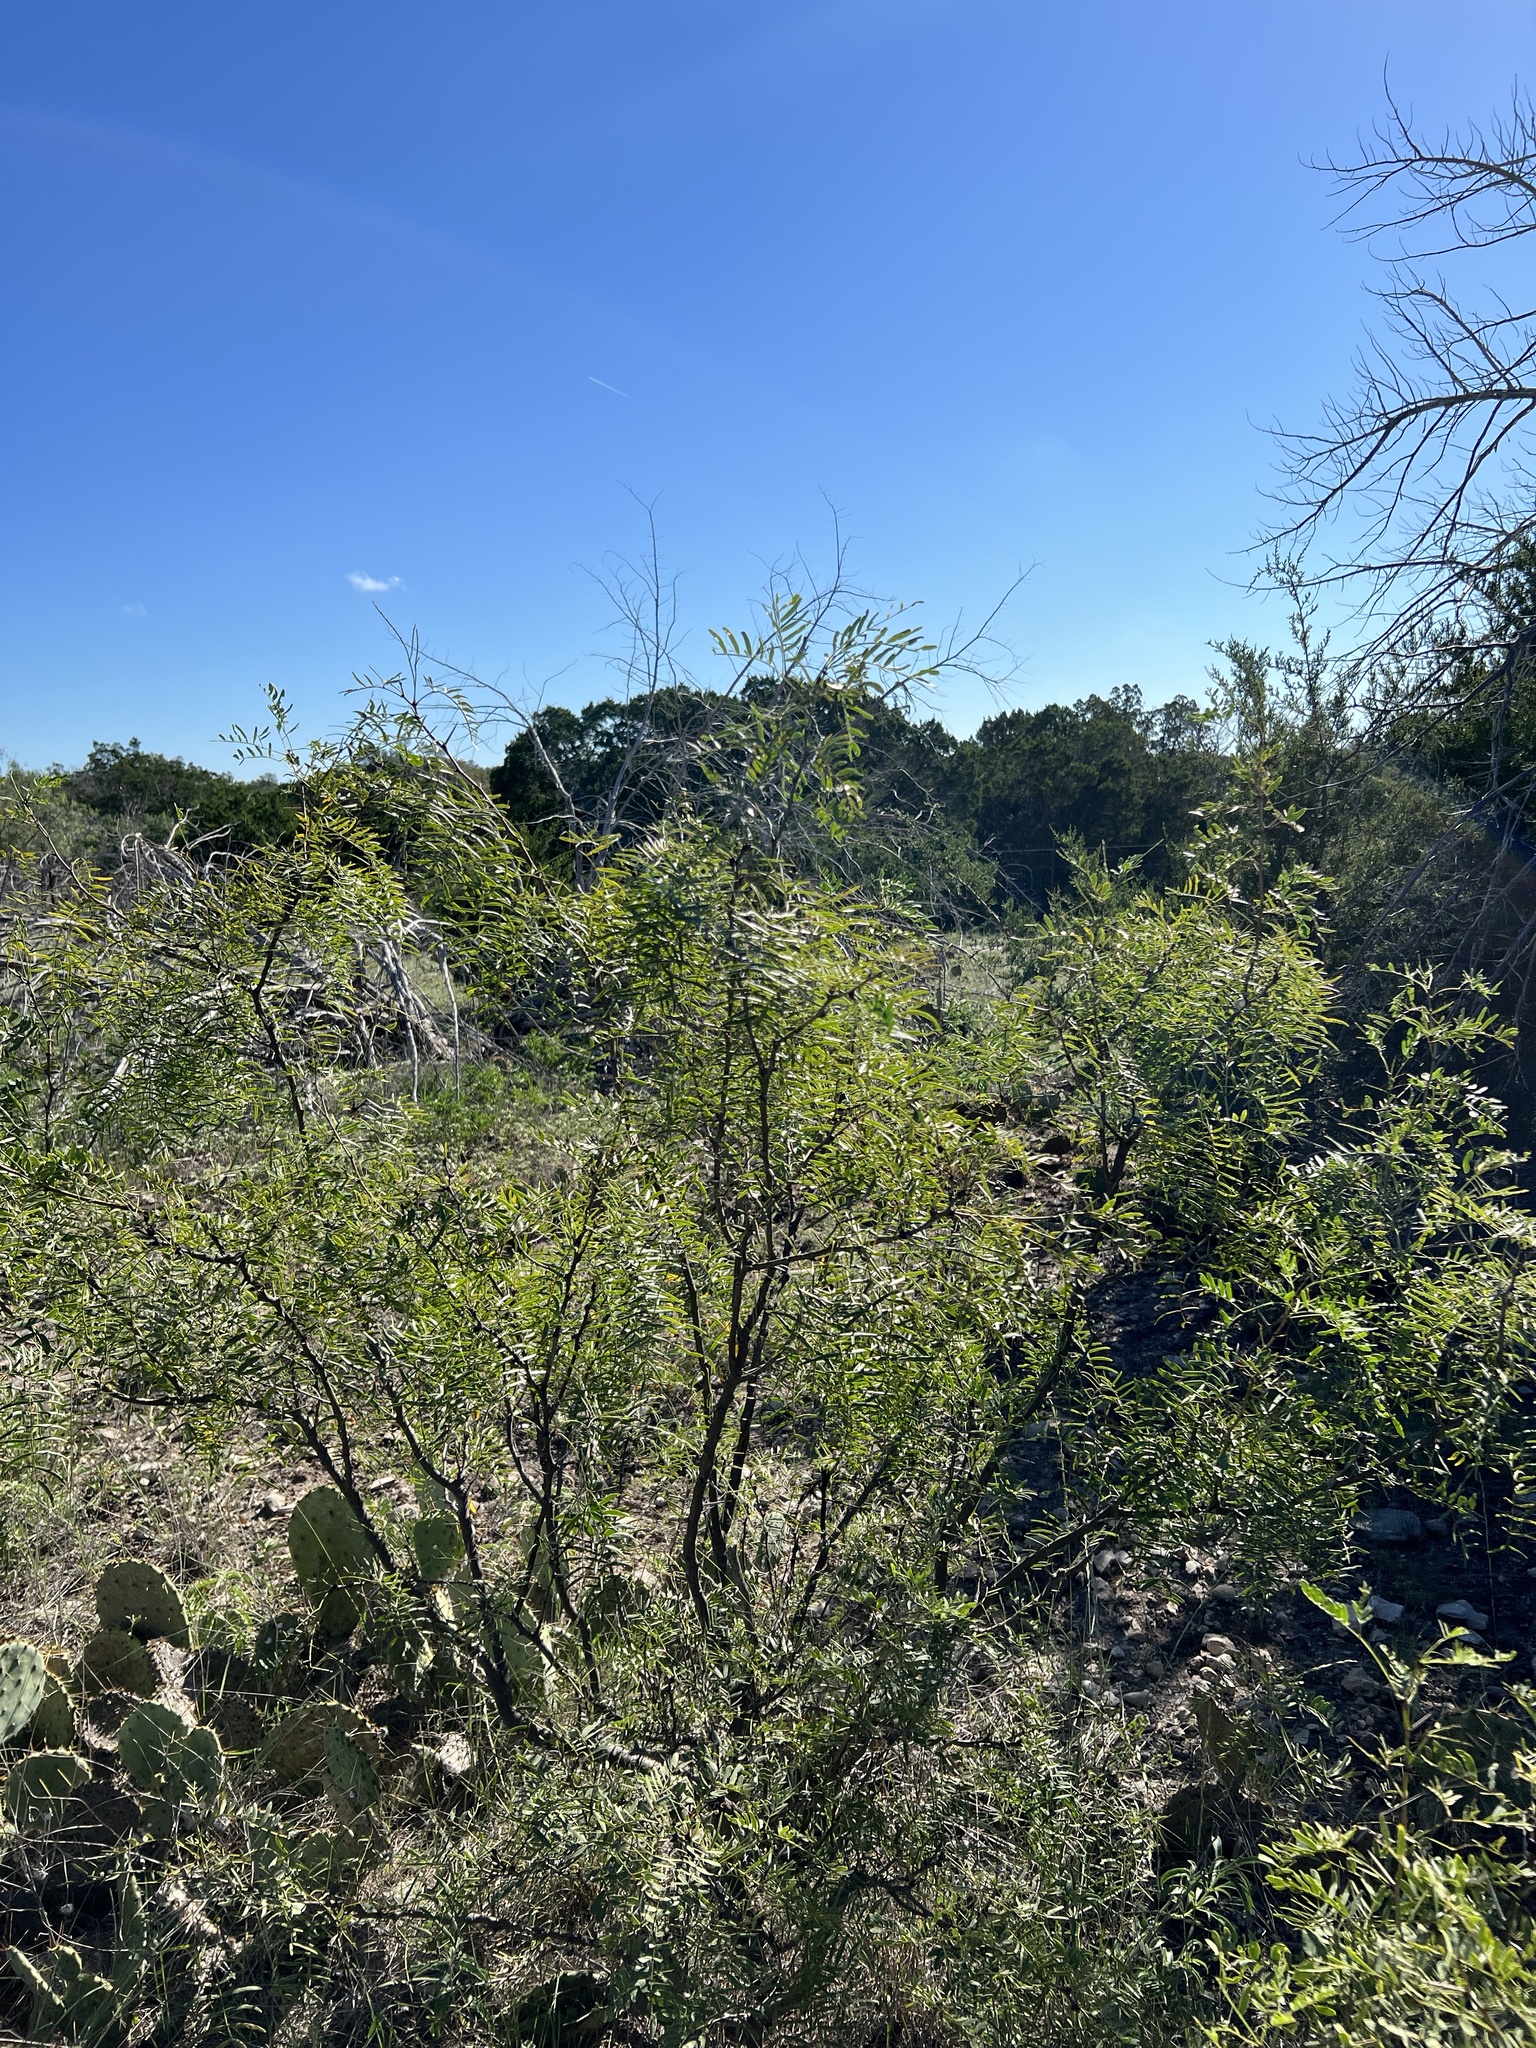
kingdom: Plantae
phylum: Tracheophyta
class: Magnoliopsida
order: Fabales
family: Fabaceae
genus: Prosopis
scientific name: Prosopis glandulosa
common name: Honey mesquite
